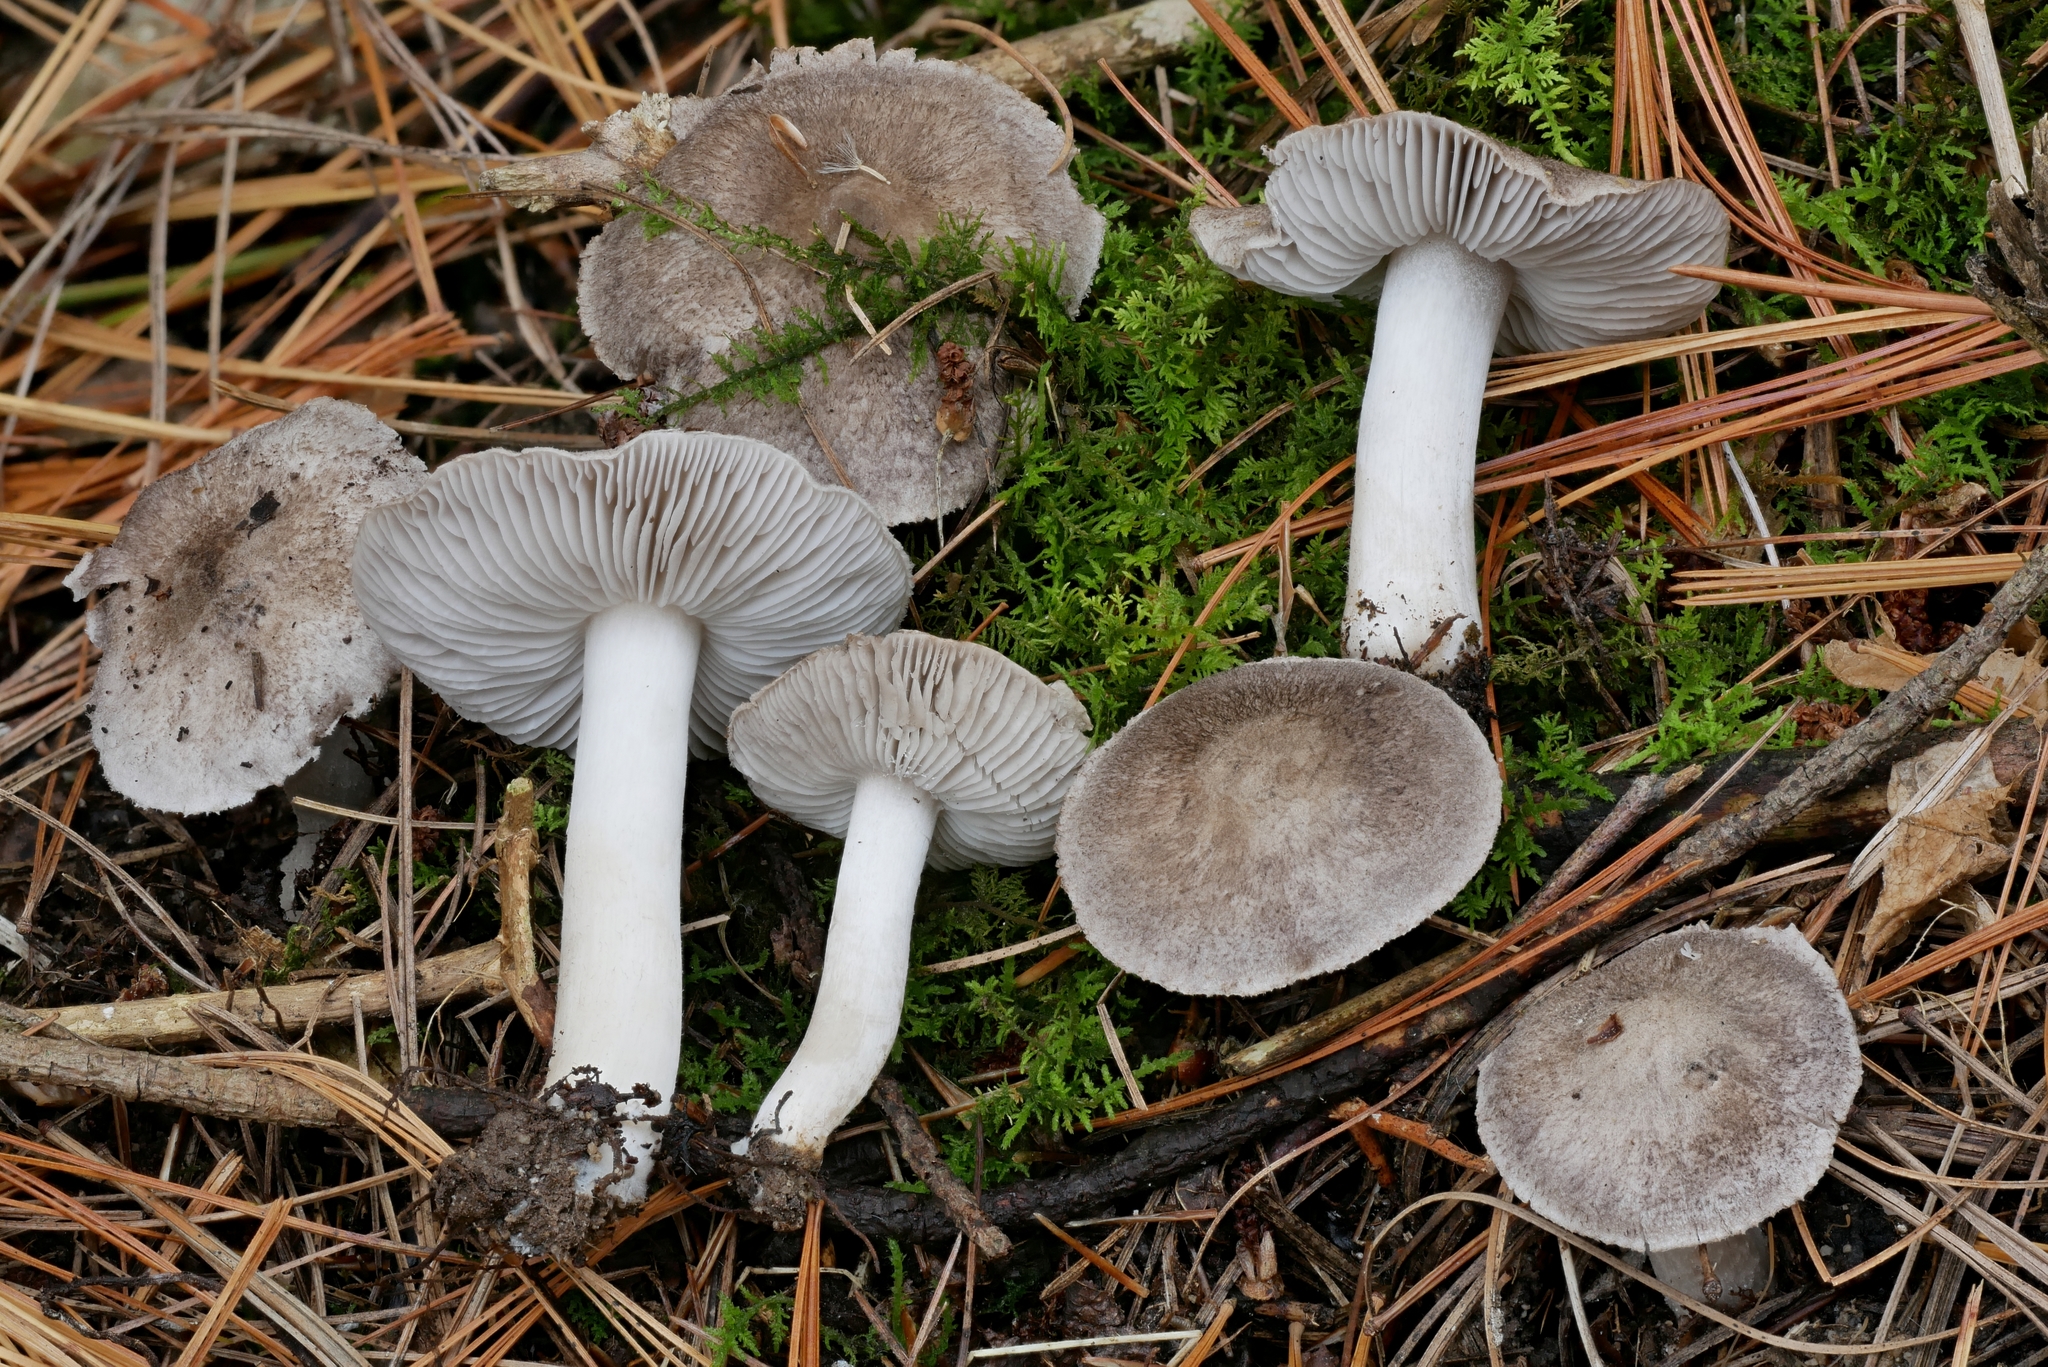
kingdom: Fungi
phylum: Basidiomycota
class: Agaricomycetes
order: Agaricales
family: Tricholomataceae
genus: Tricholoma
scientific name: Tricholoma terreum
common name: Grey knight
